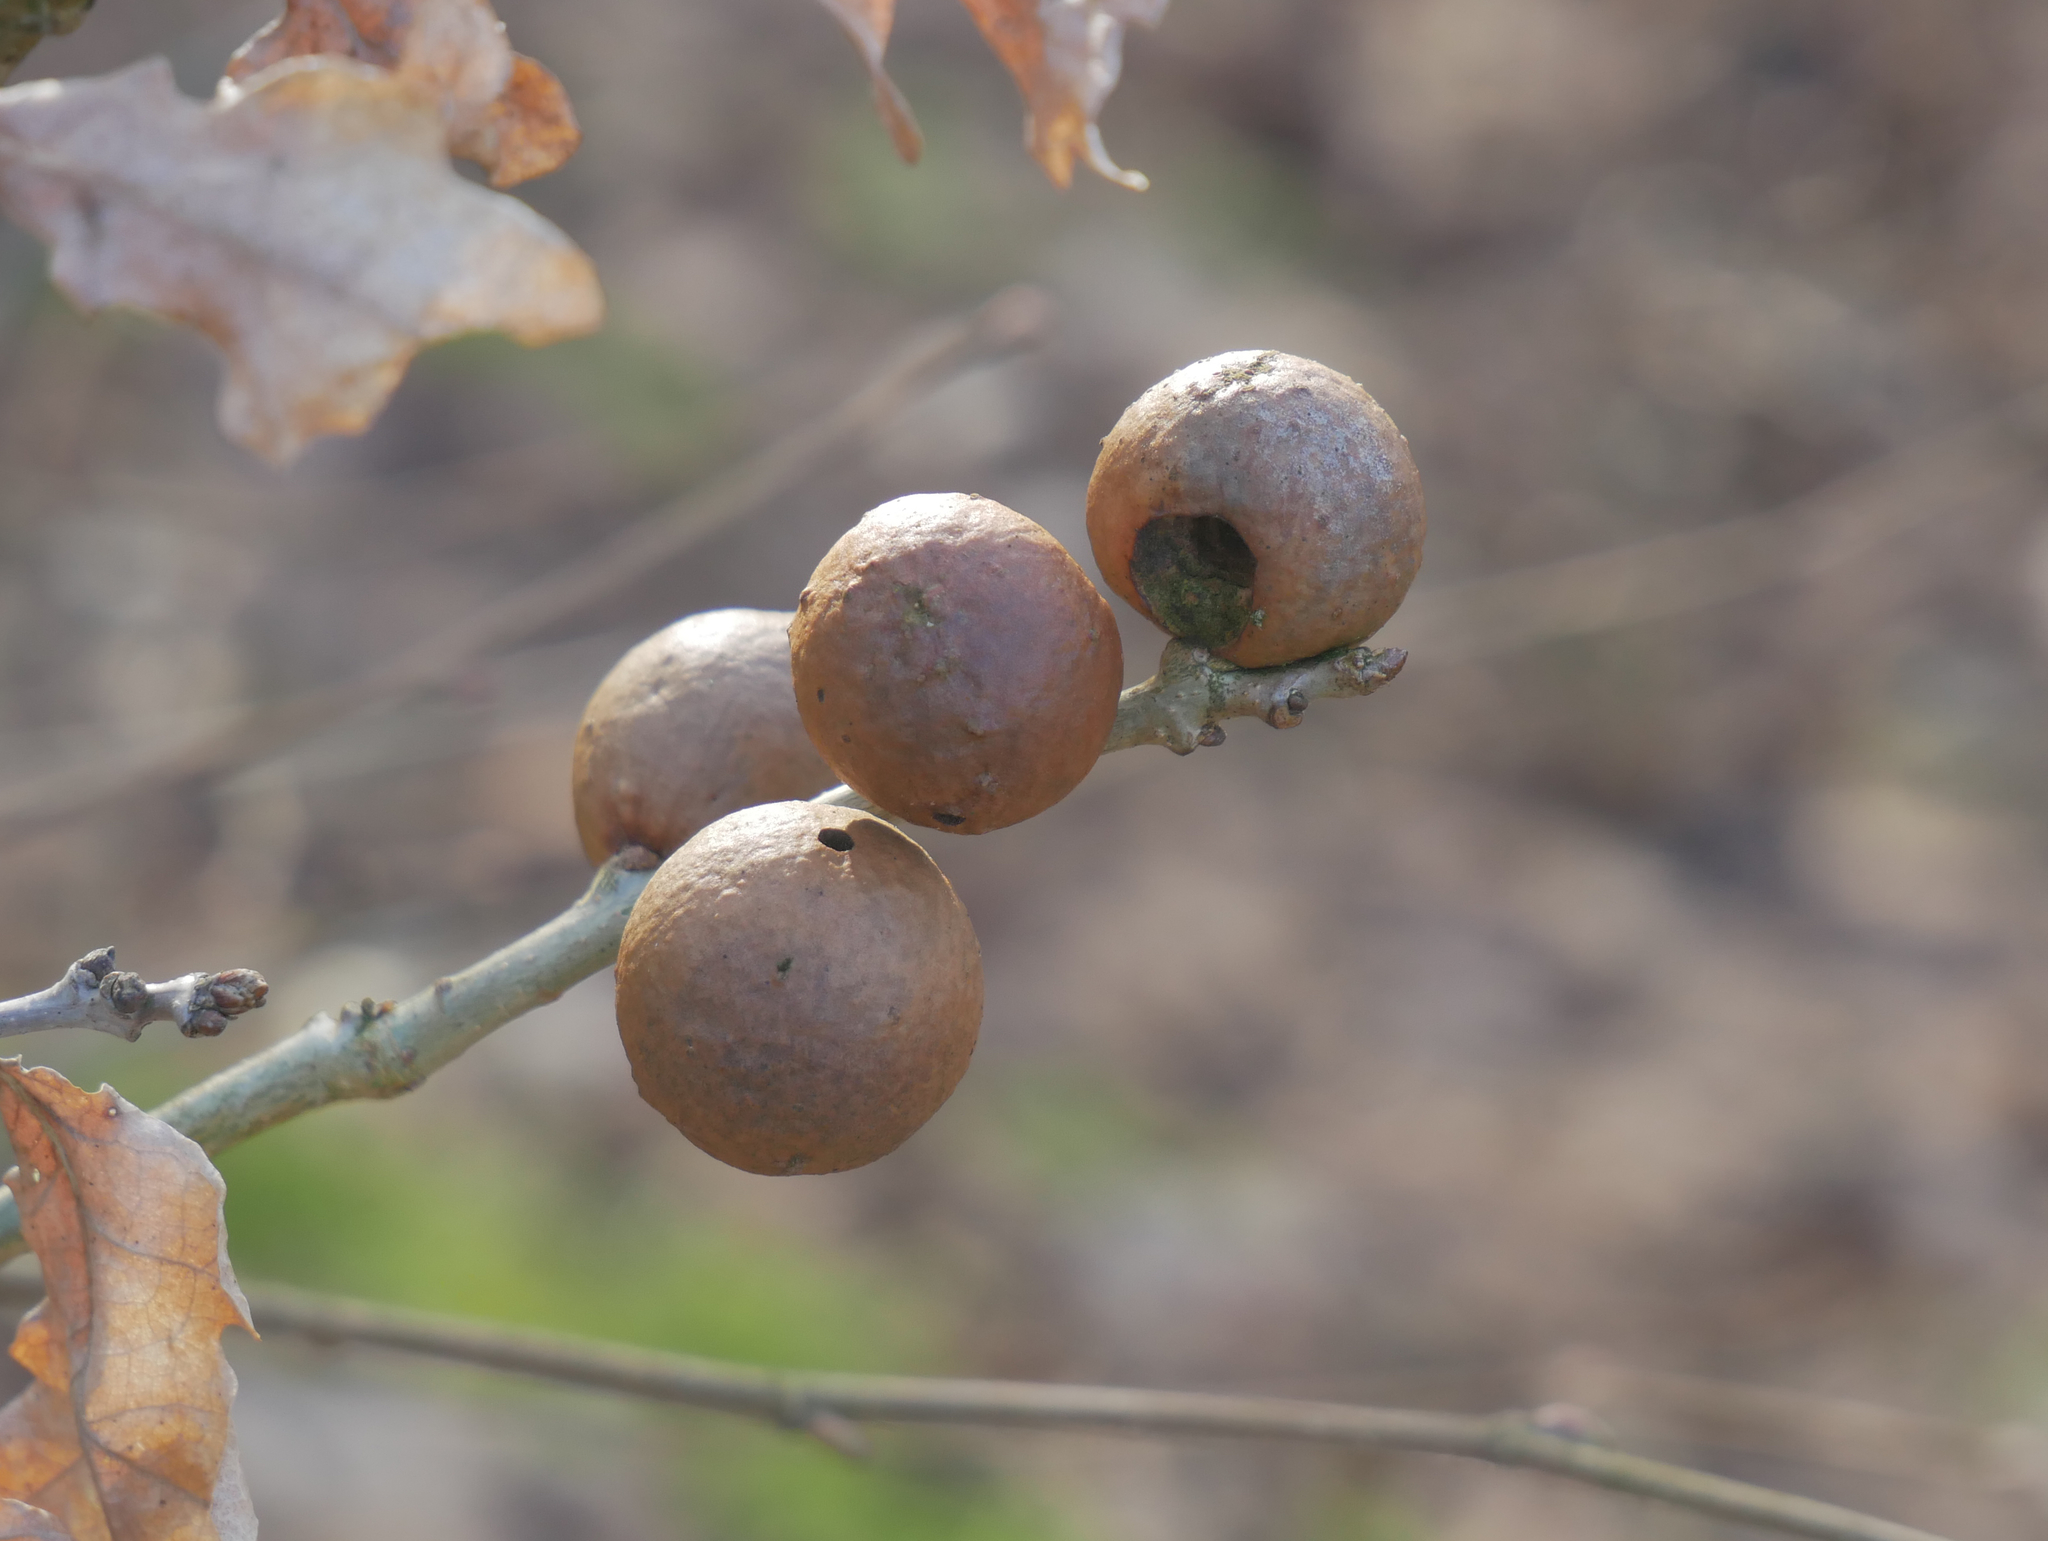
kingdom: Animalia
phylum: Arthropoda
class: Insecta
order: Hymenoptera
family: Cynipidae
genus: Andricus
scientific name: Andricus kollari
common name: Marble gall
